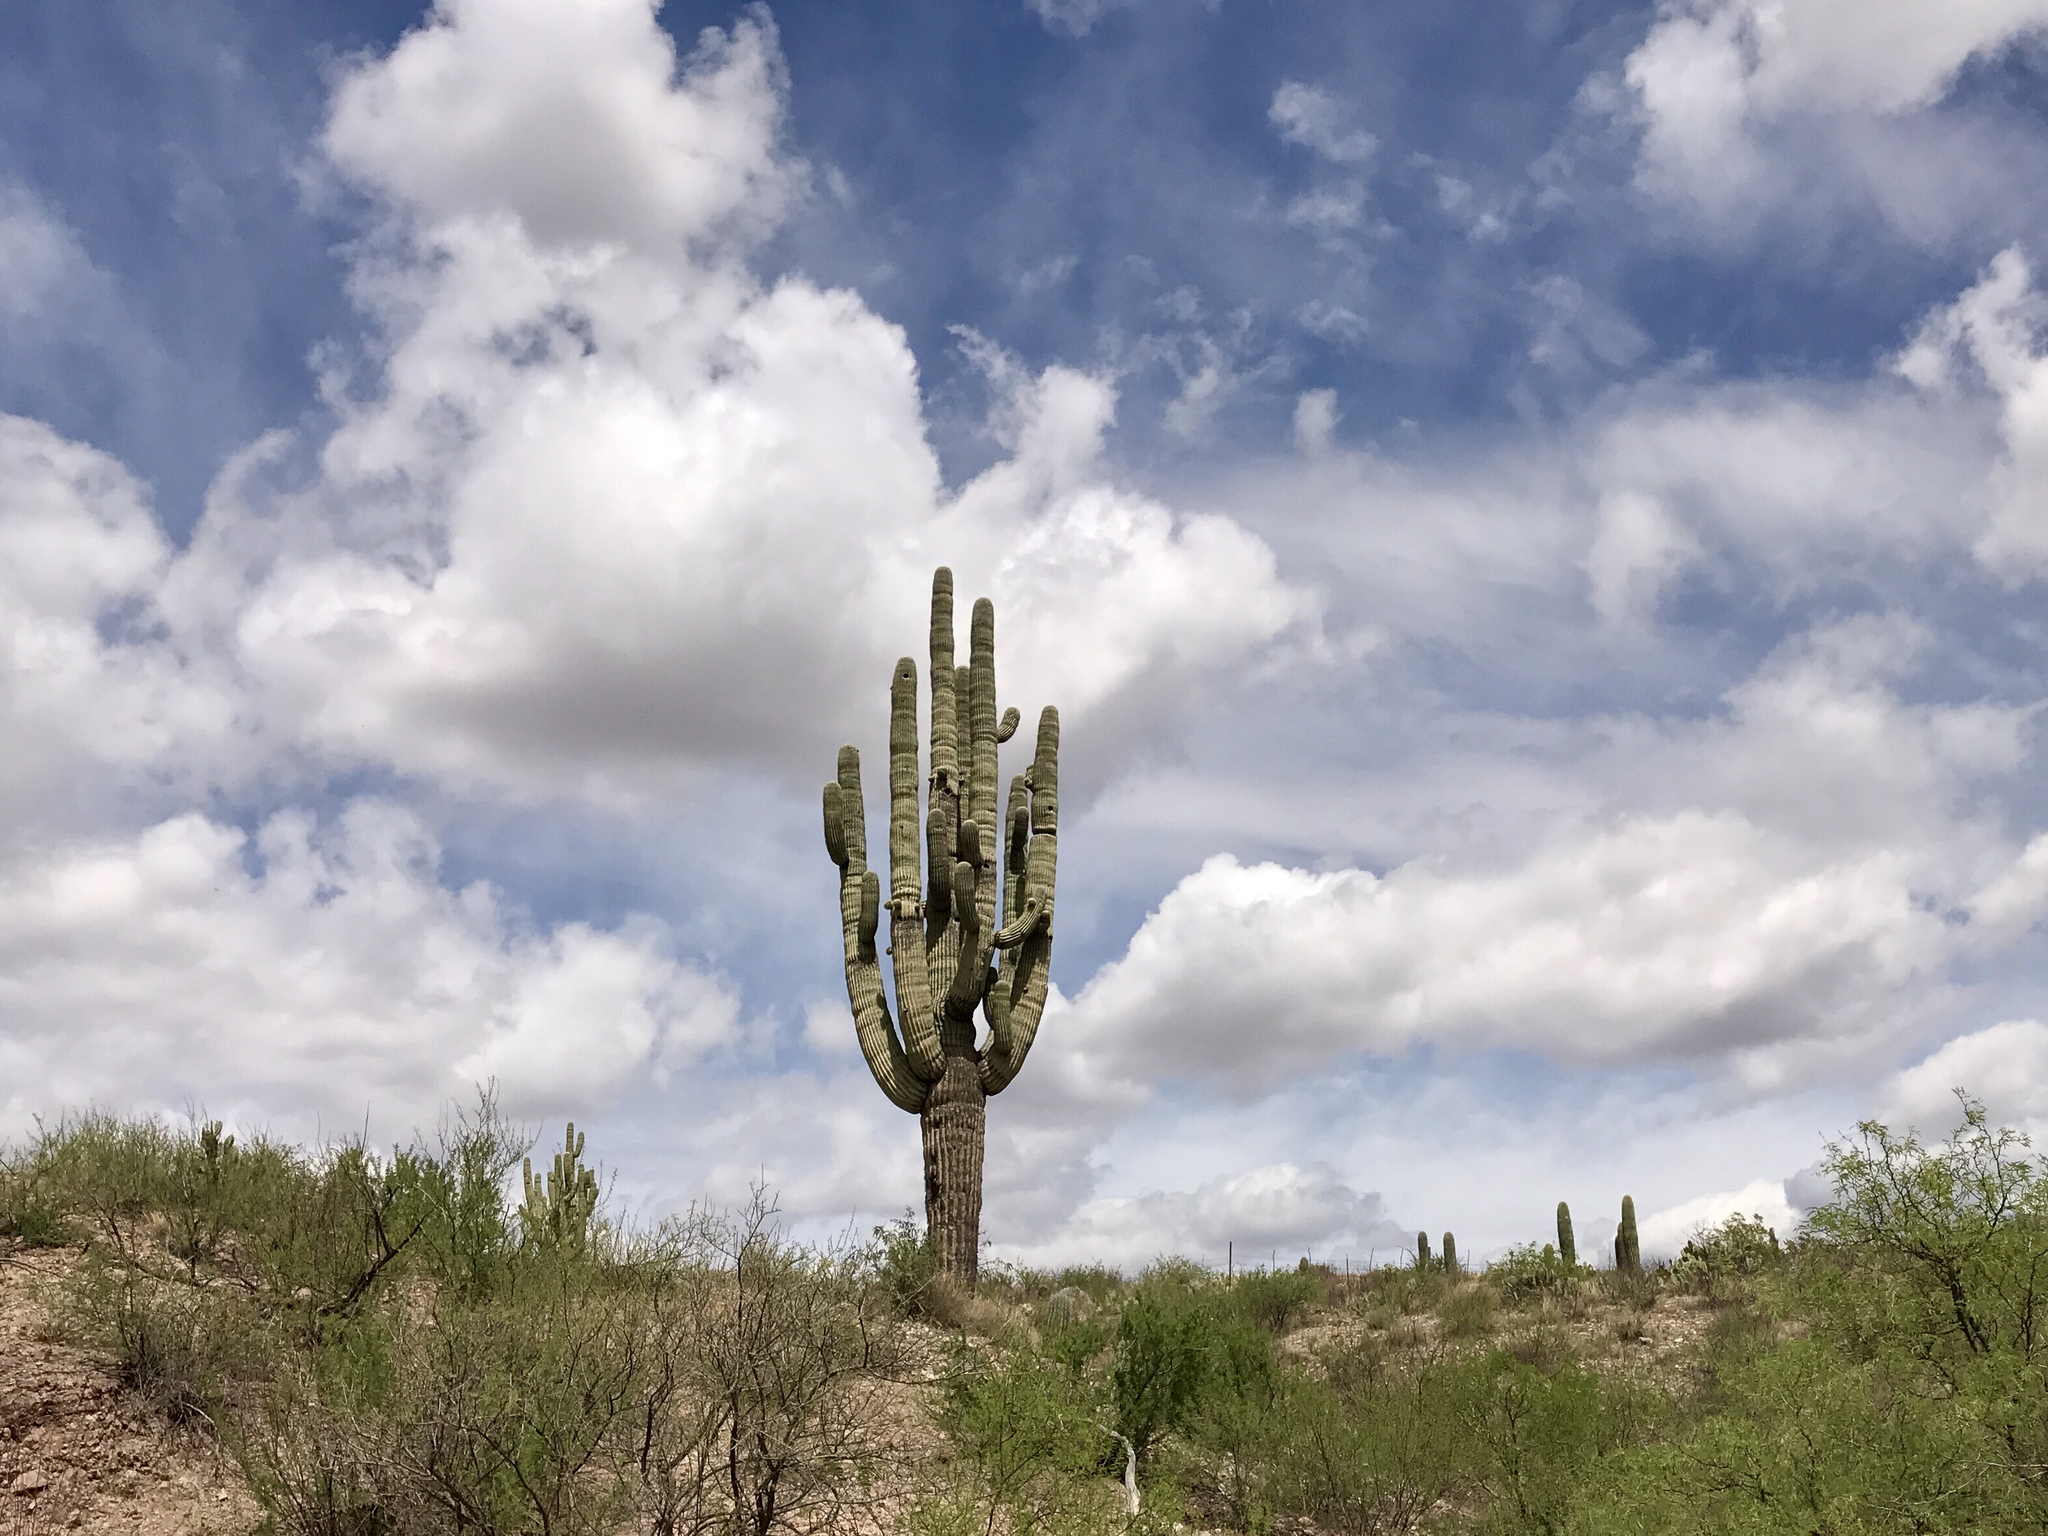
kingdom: Plantae
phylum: Tracheophyta
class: Magnoliopsida
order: Caryophyllales
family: Cactaceae
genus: Carnegiea
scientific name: Carnegiea gigantea
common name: Saguaro
